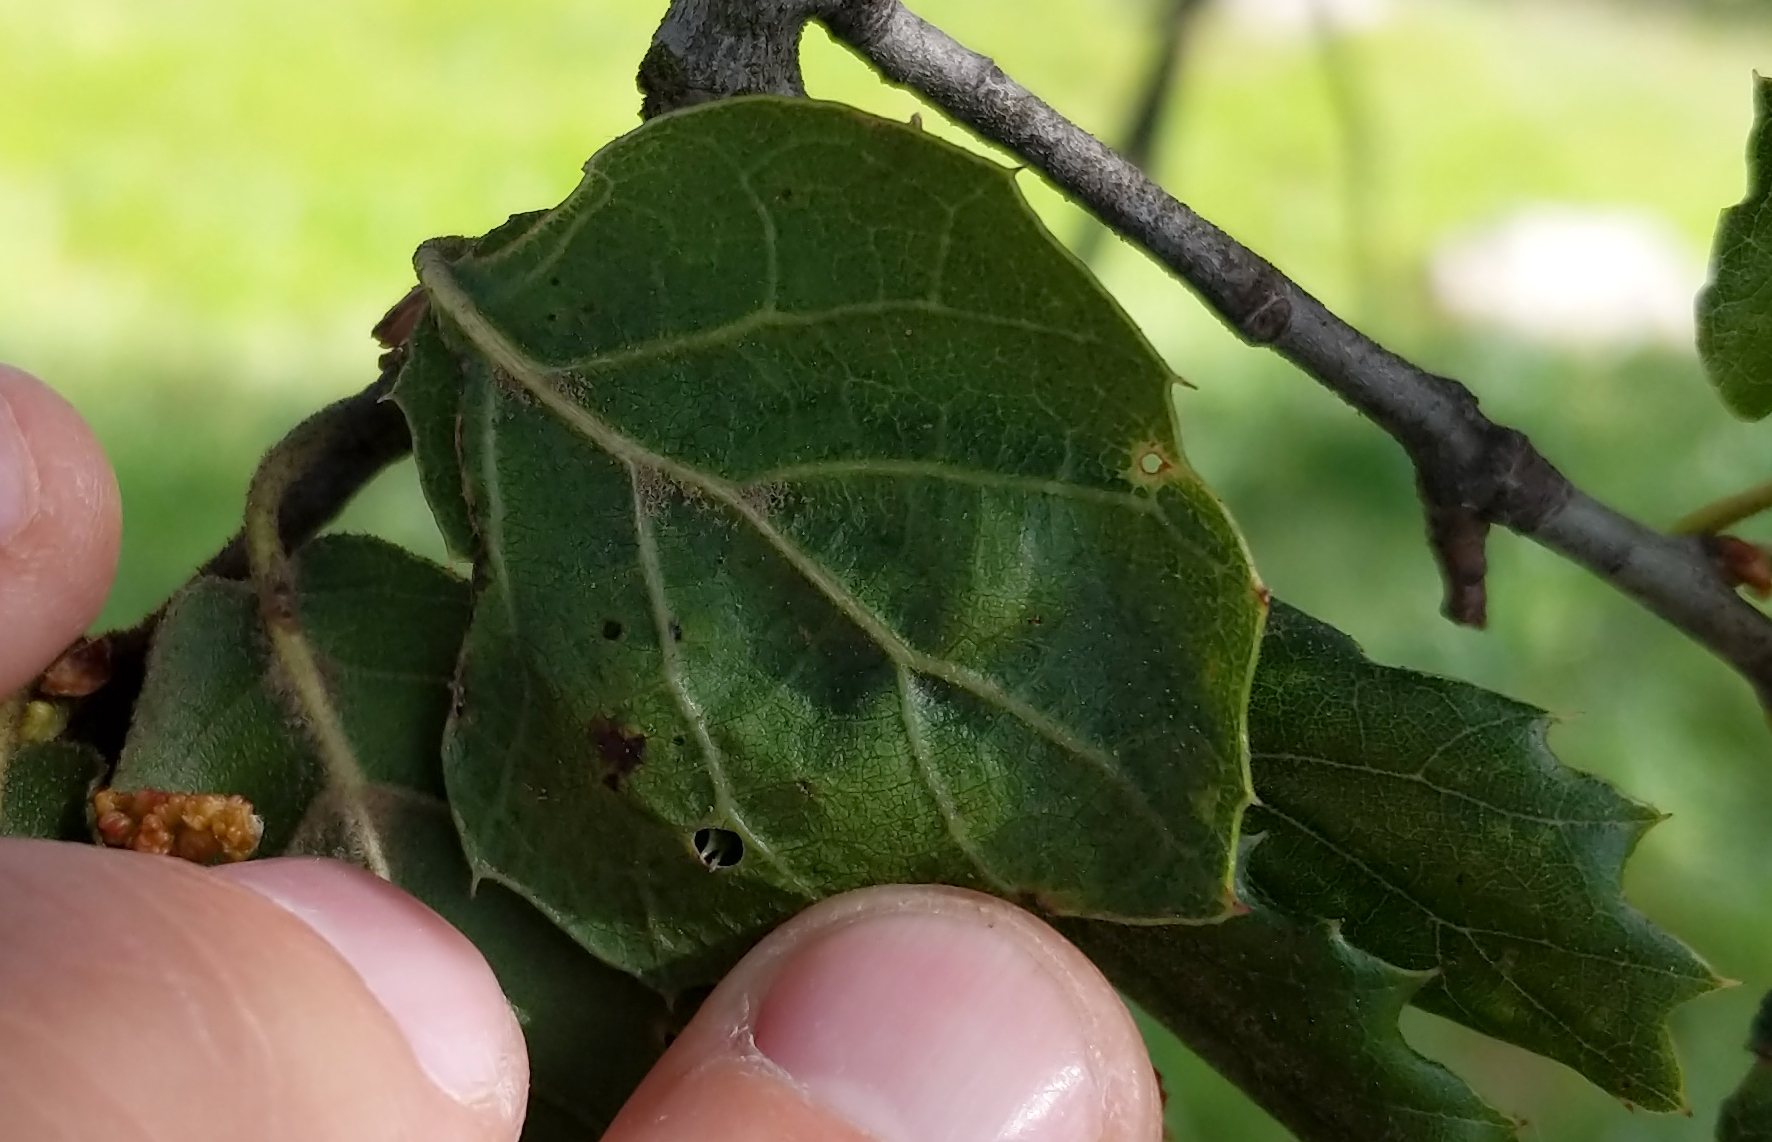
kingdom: Plantae
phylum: Tracheophyta
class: Magnoliopsida
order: Fagales
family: Fagaceae
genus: Quercus
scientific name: Quercus agrifolia
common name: California live oak
